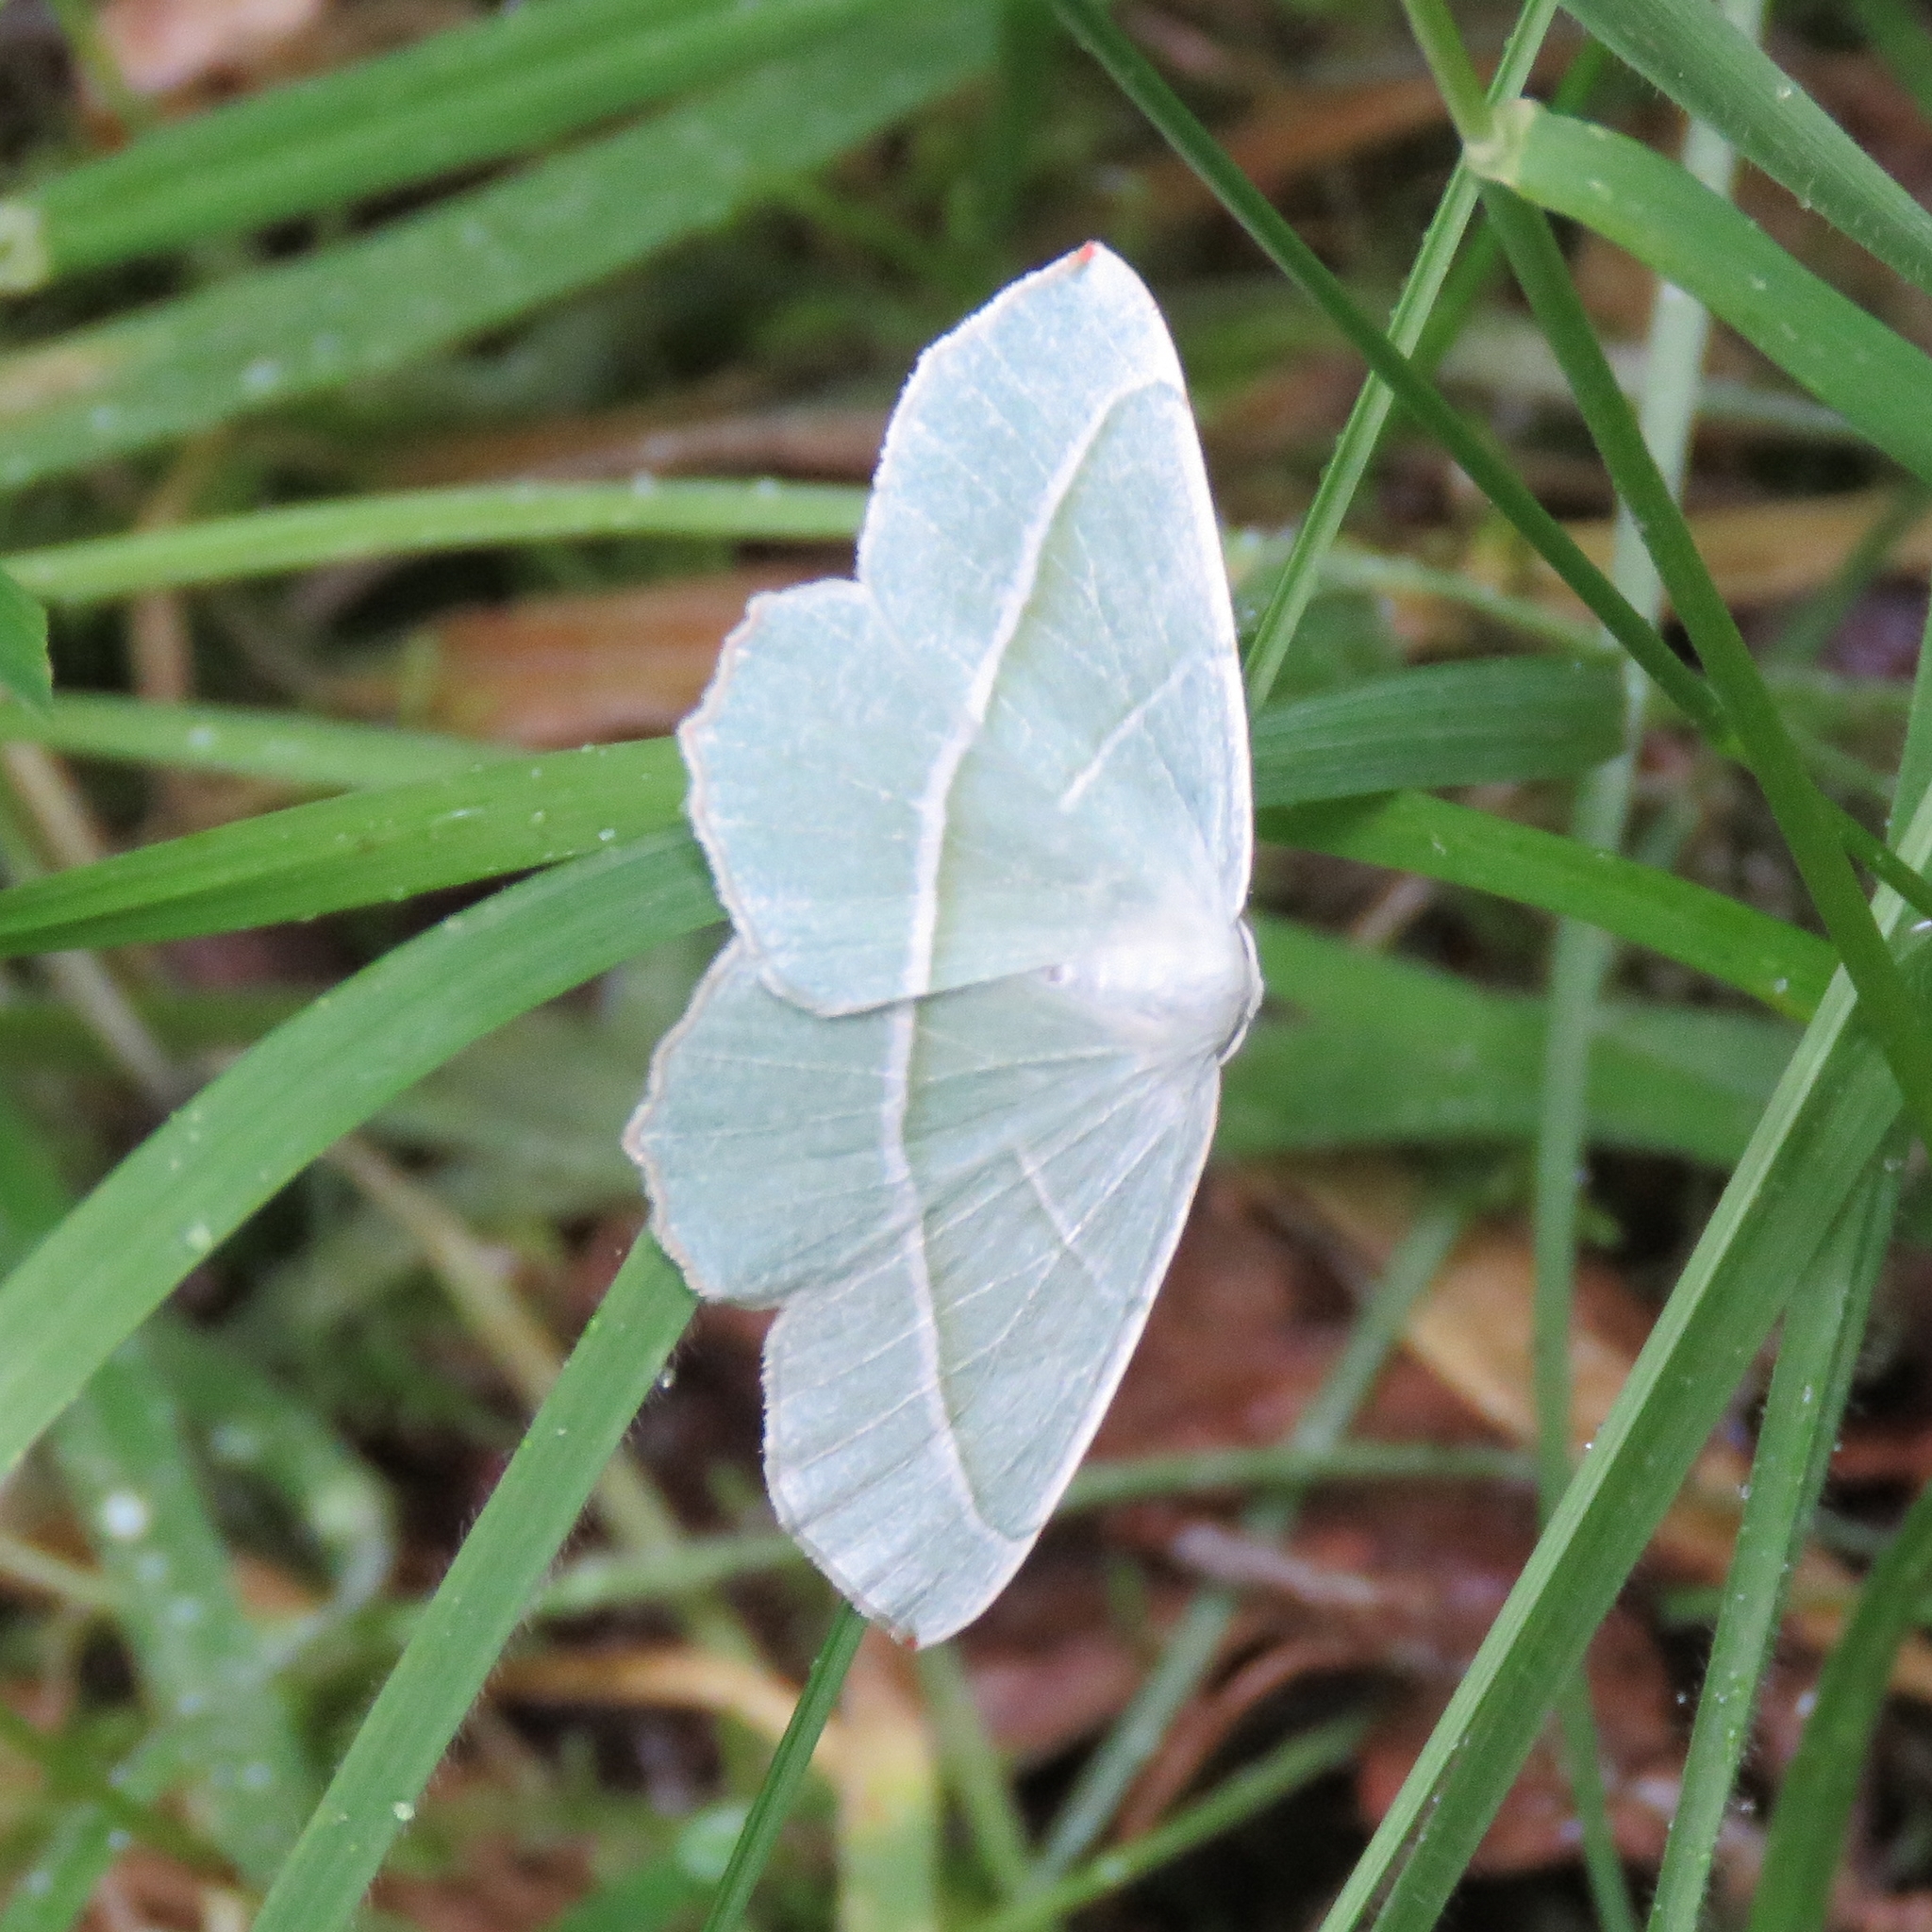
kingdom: Animalia
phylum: Arthropoda
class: Insecta
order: Lepidoptera
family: Geometridae
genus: Campaea
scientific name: Campaea margaritaria
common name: Light emerald
